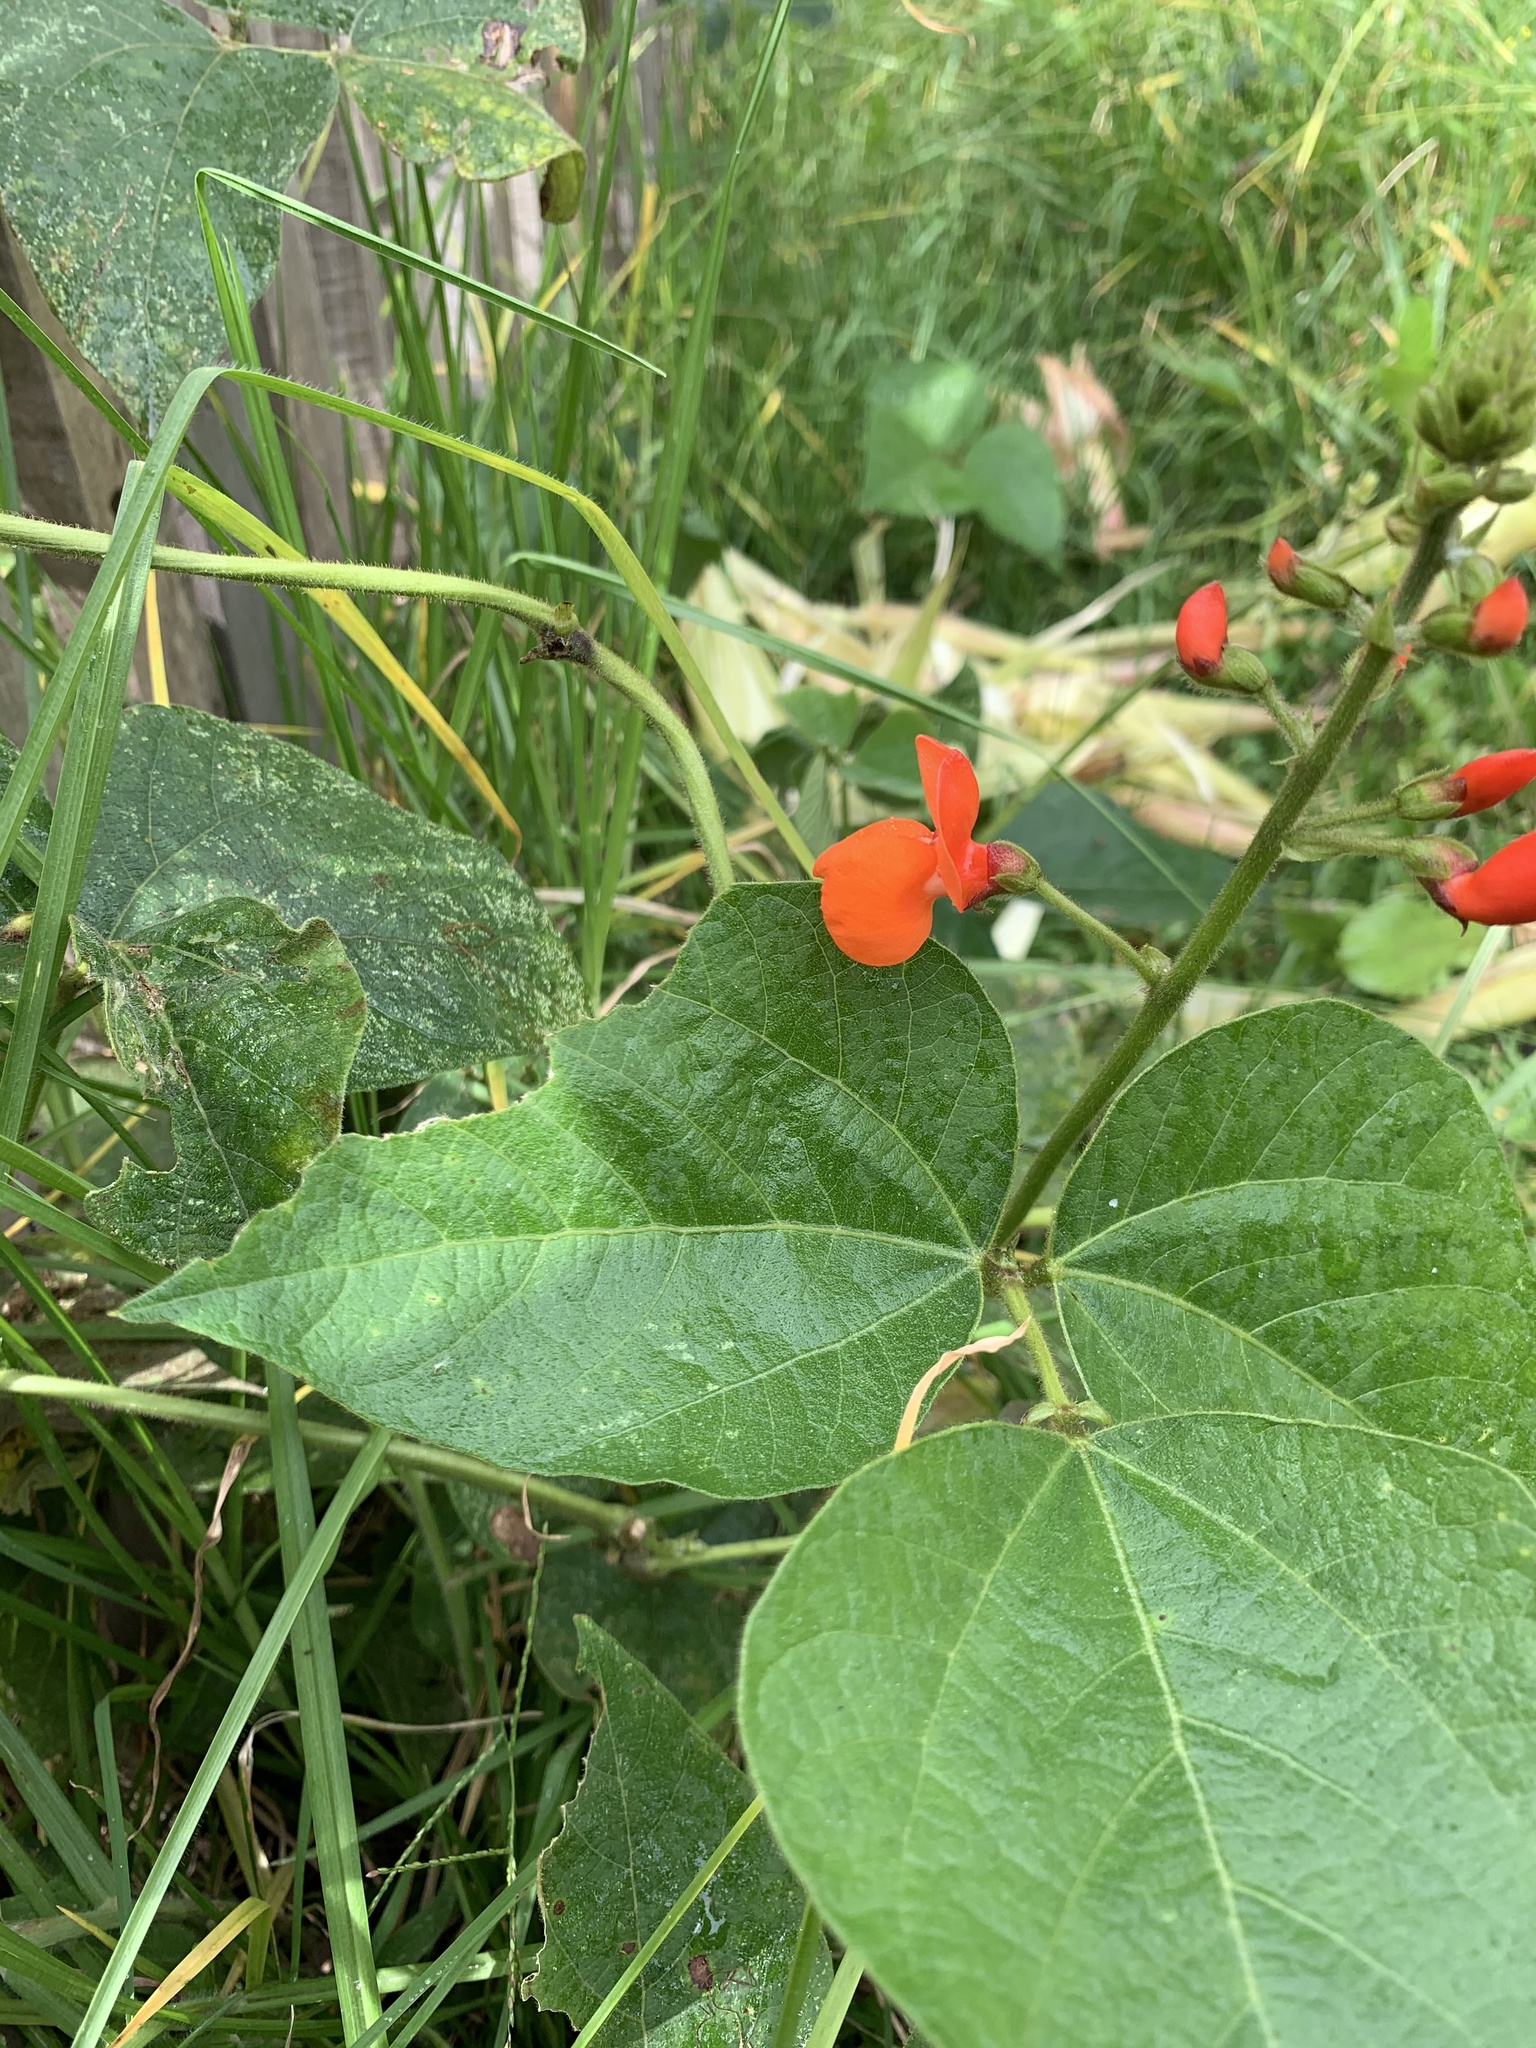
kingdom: Plantae
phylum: Tracheophyta
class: Magnoliopsida
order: Fabales
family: Fabaceae
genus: Phaseolus
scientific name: Phaseolus coccineus
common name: Runner bean
